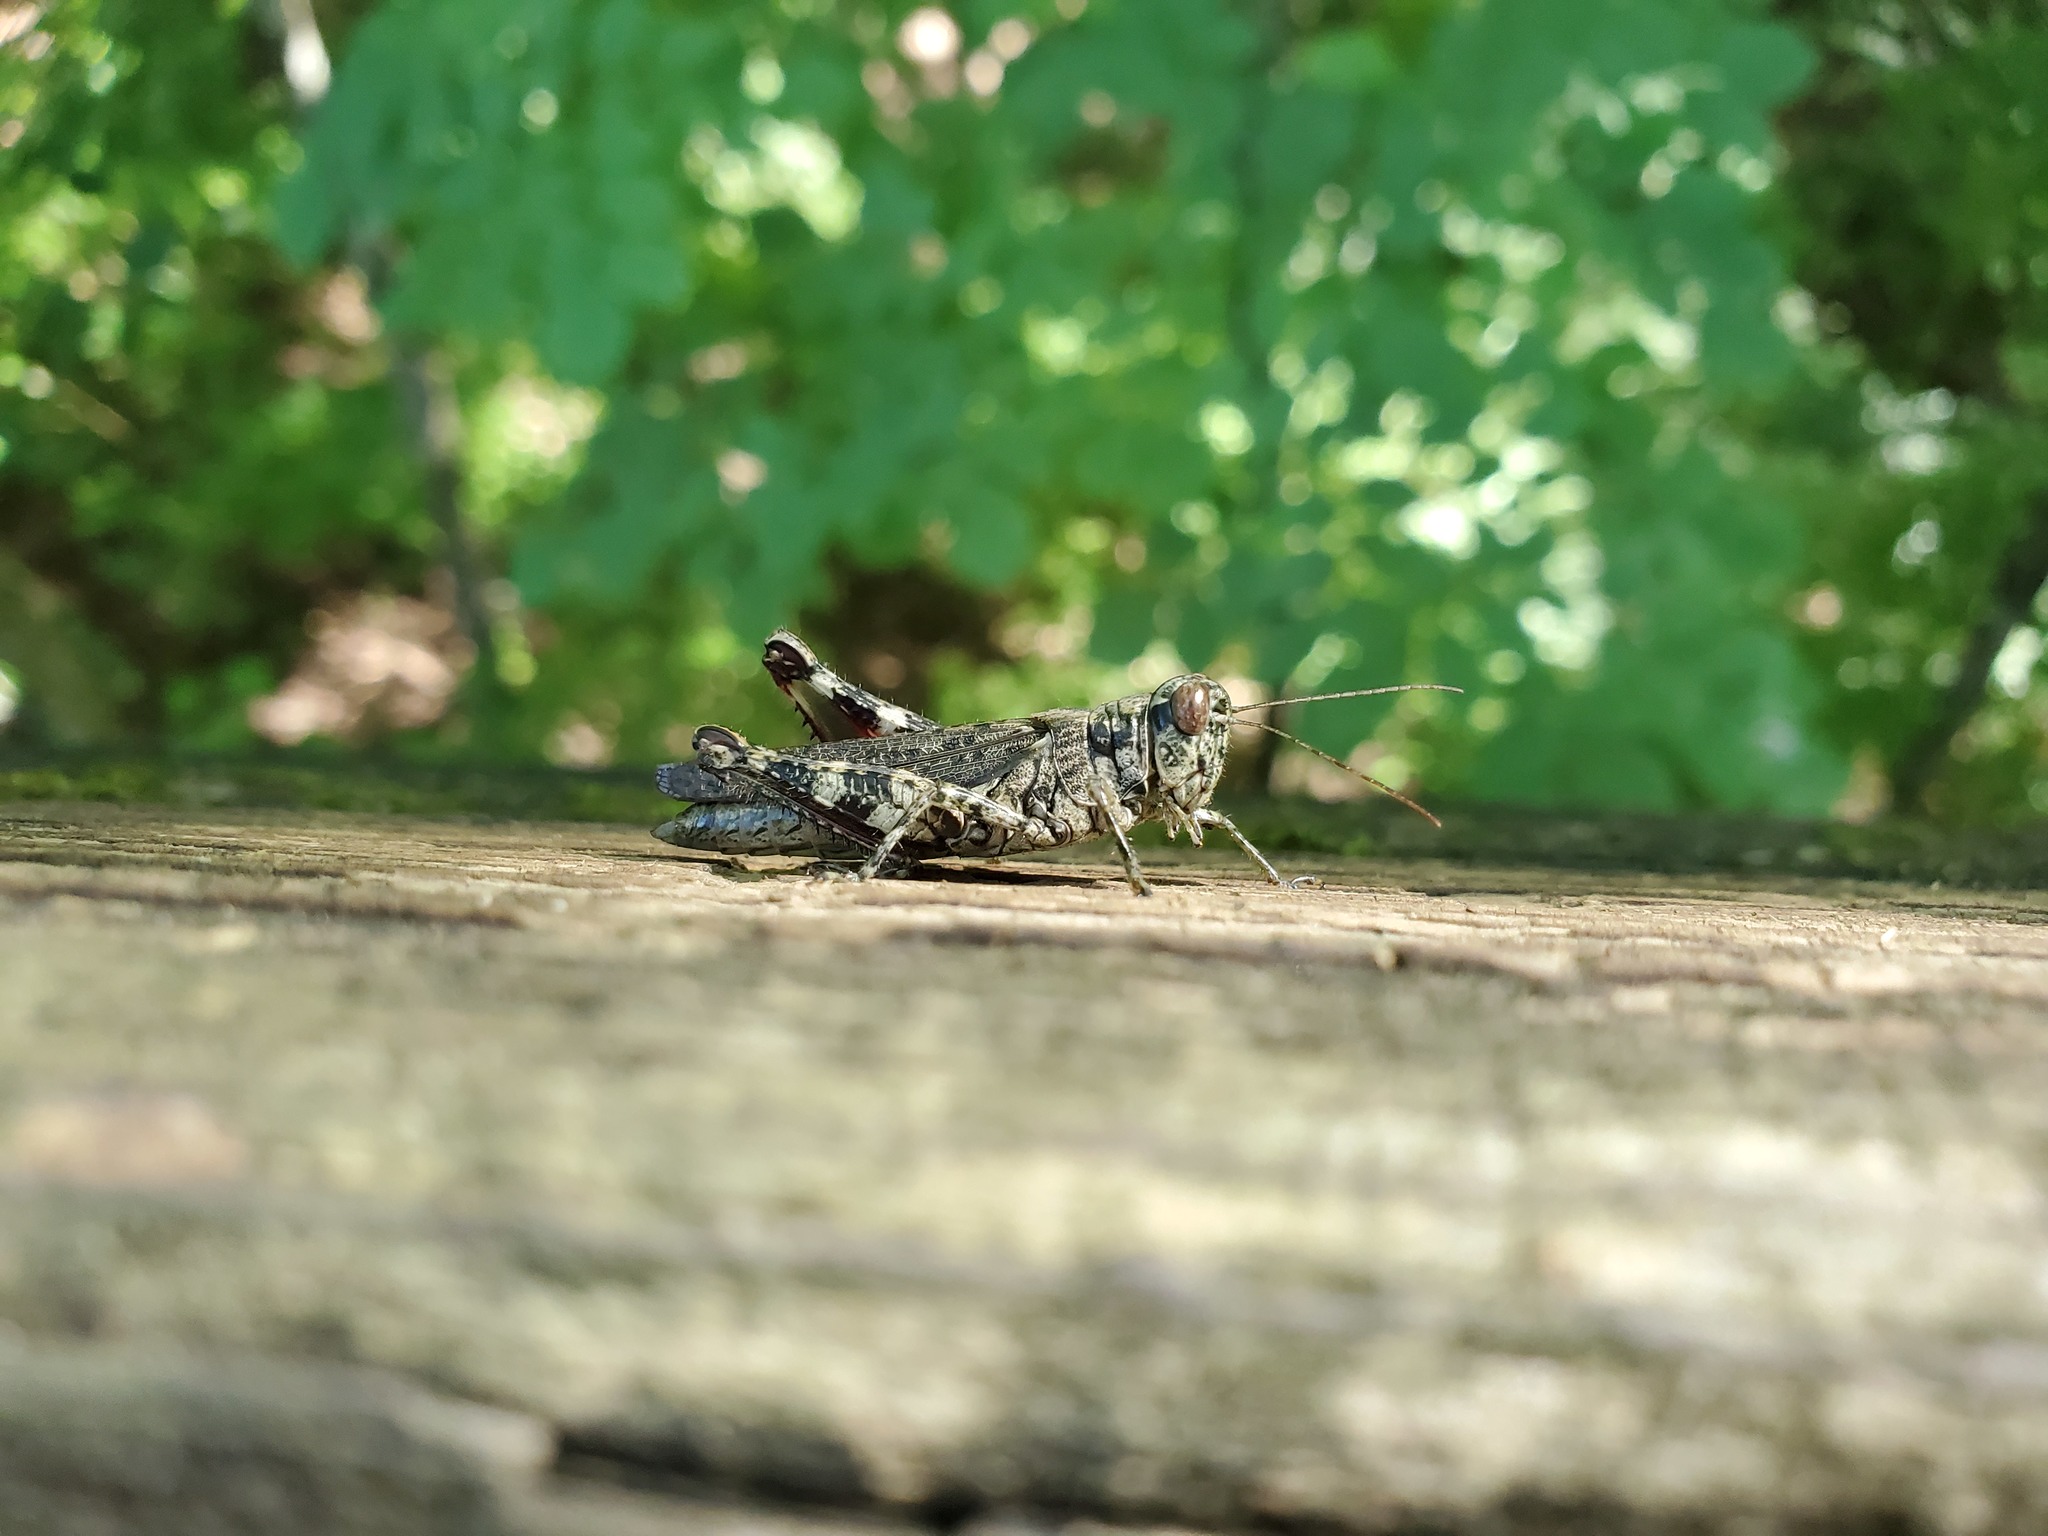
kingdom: Animalia
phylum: Arthropoda
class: Insecta
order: Orthoptera
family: Acrididae
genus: Melanoplus
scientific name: Melanoplus punctulatus
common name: Pine-tree spur-throat grasshopper
